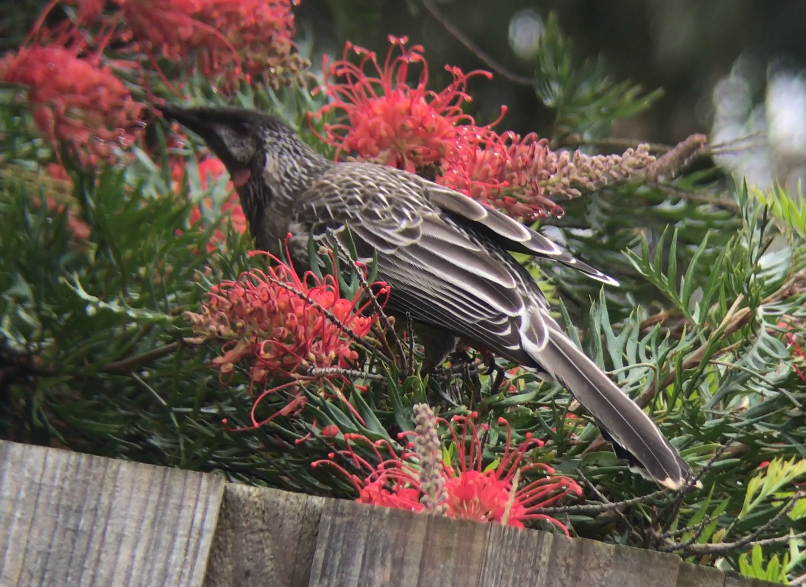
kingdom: Animalia
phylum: Chordata
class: Aves
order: Passeriformes
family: Meliphagidae
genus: Anthochaera
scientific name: Anthochaera carunculata
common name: Red wattlebird
